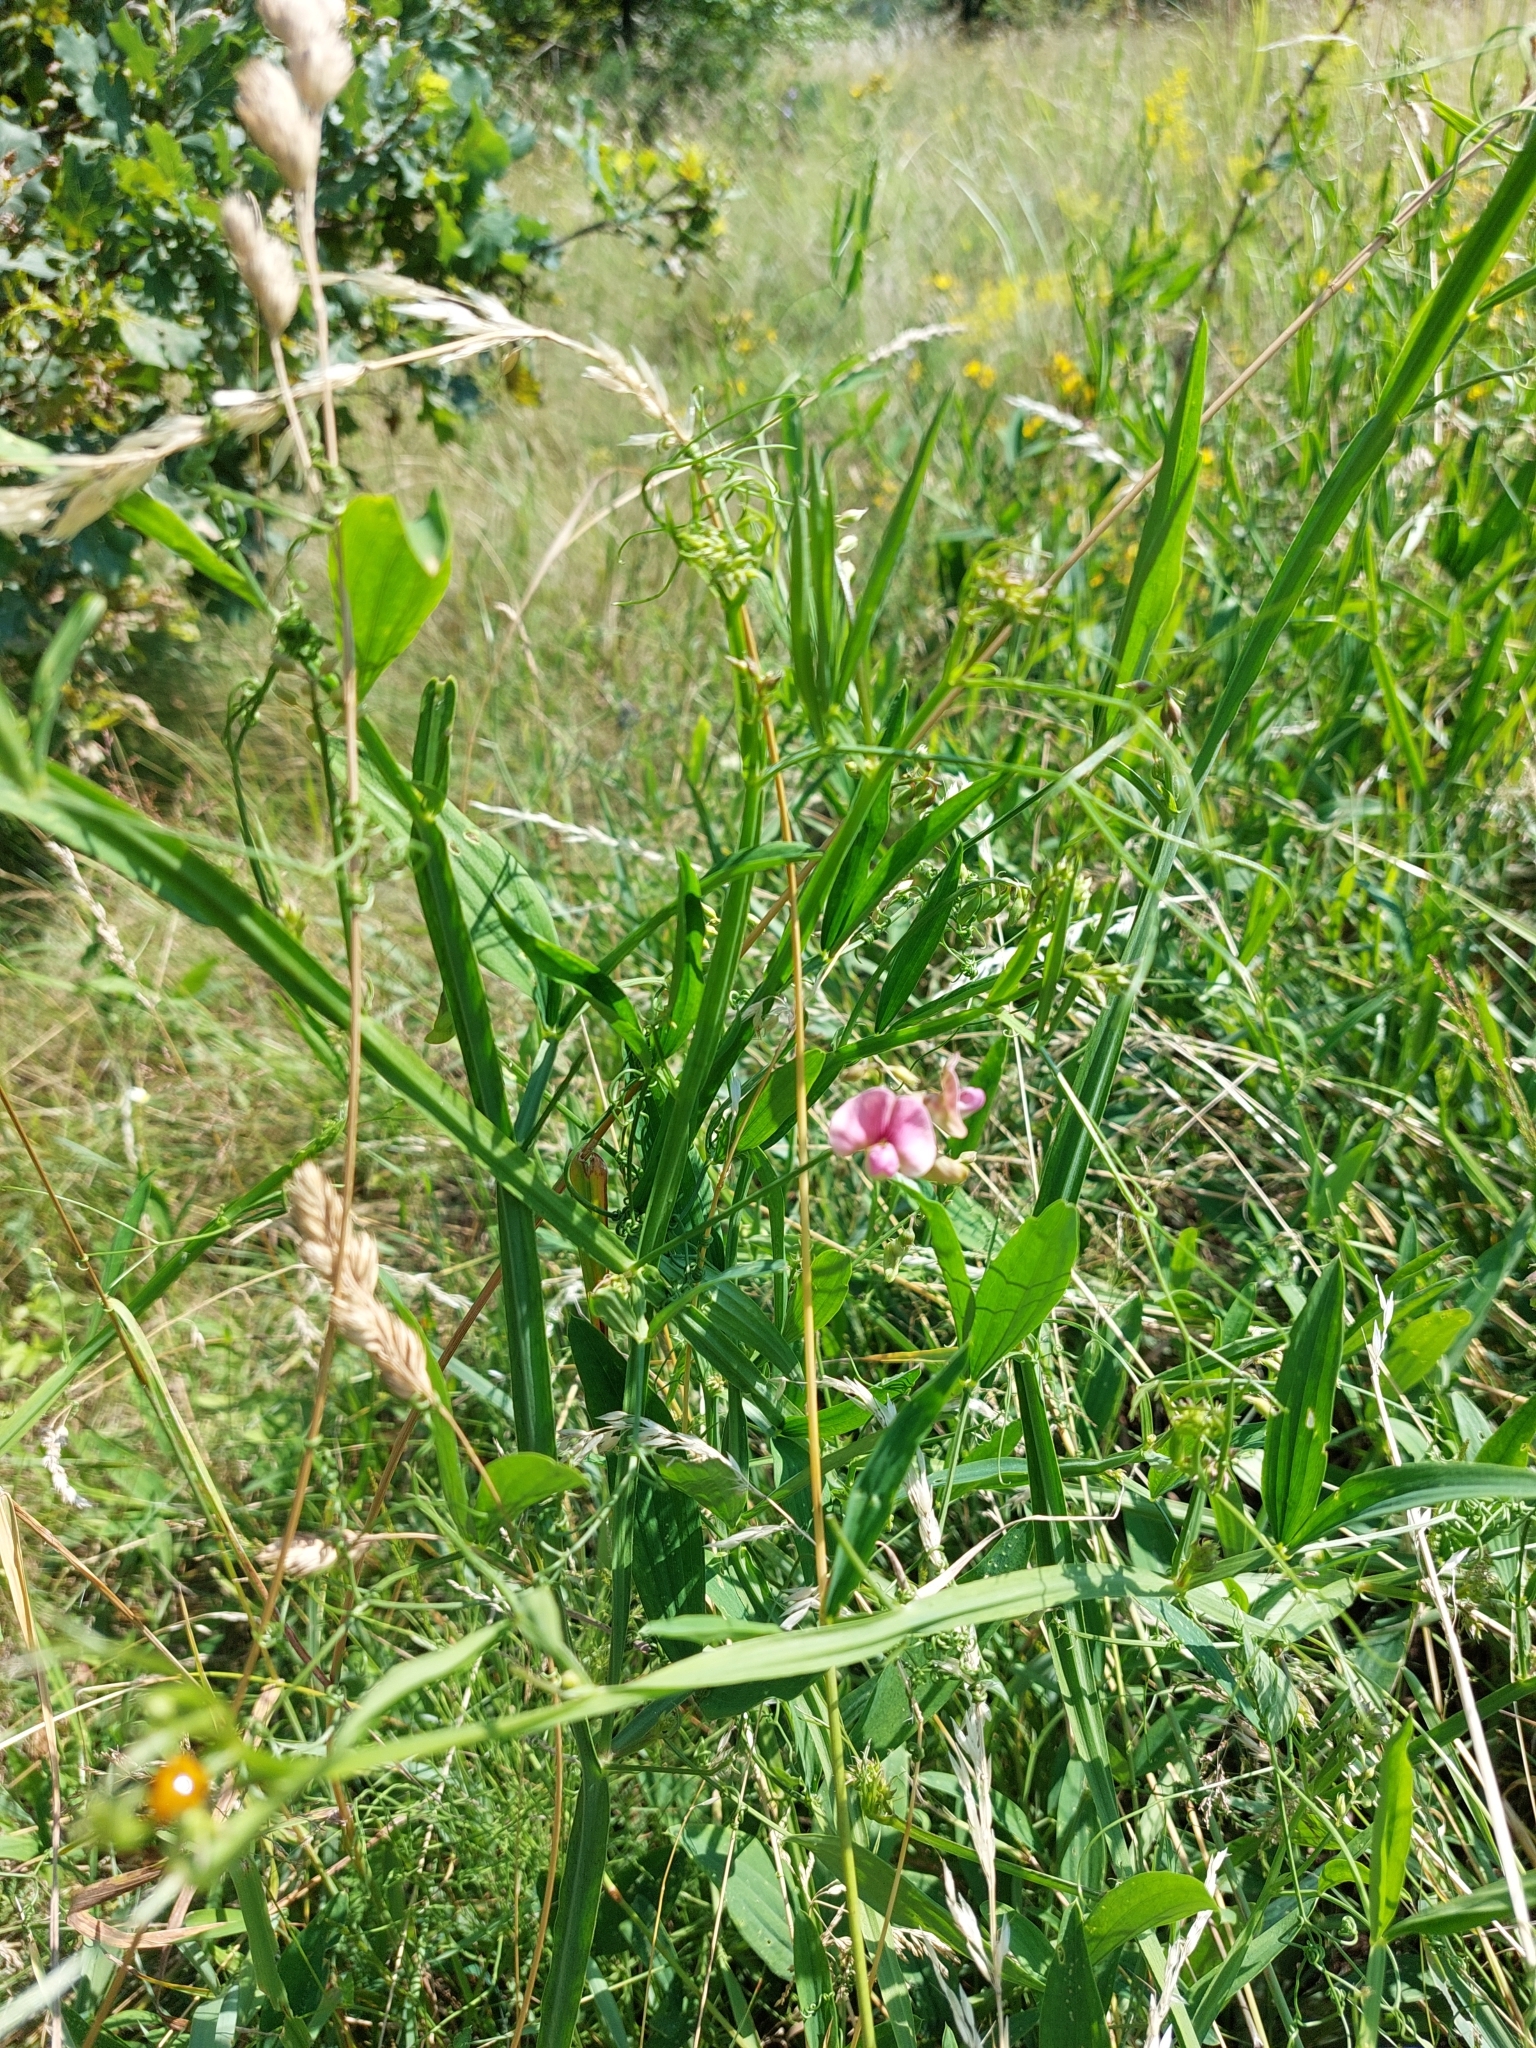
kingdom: Plantae
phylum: Tracheophyta
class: Magnoliopsida
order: Fabales
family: Fabaceae
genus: Lathyrus
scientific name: Lathyrus sylvestris
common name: Flat pea
